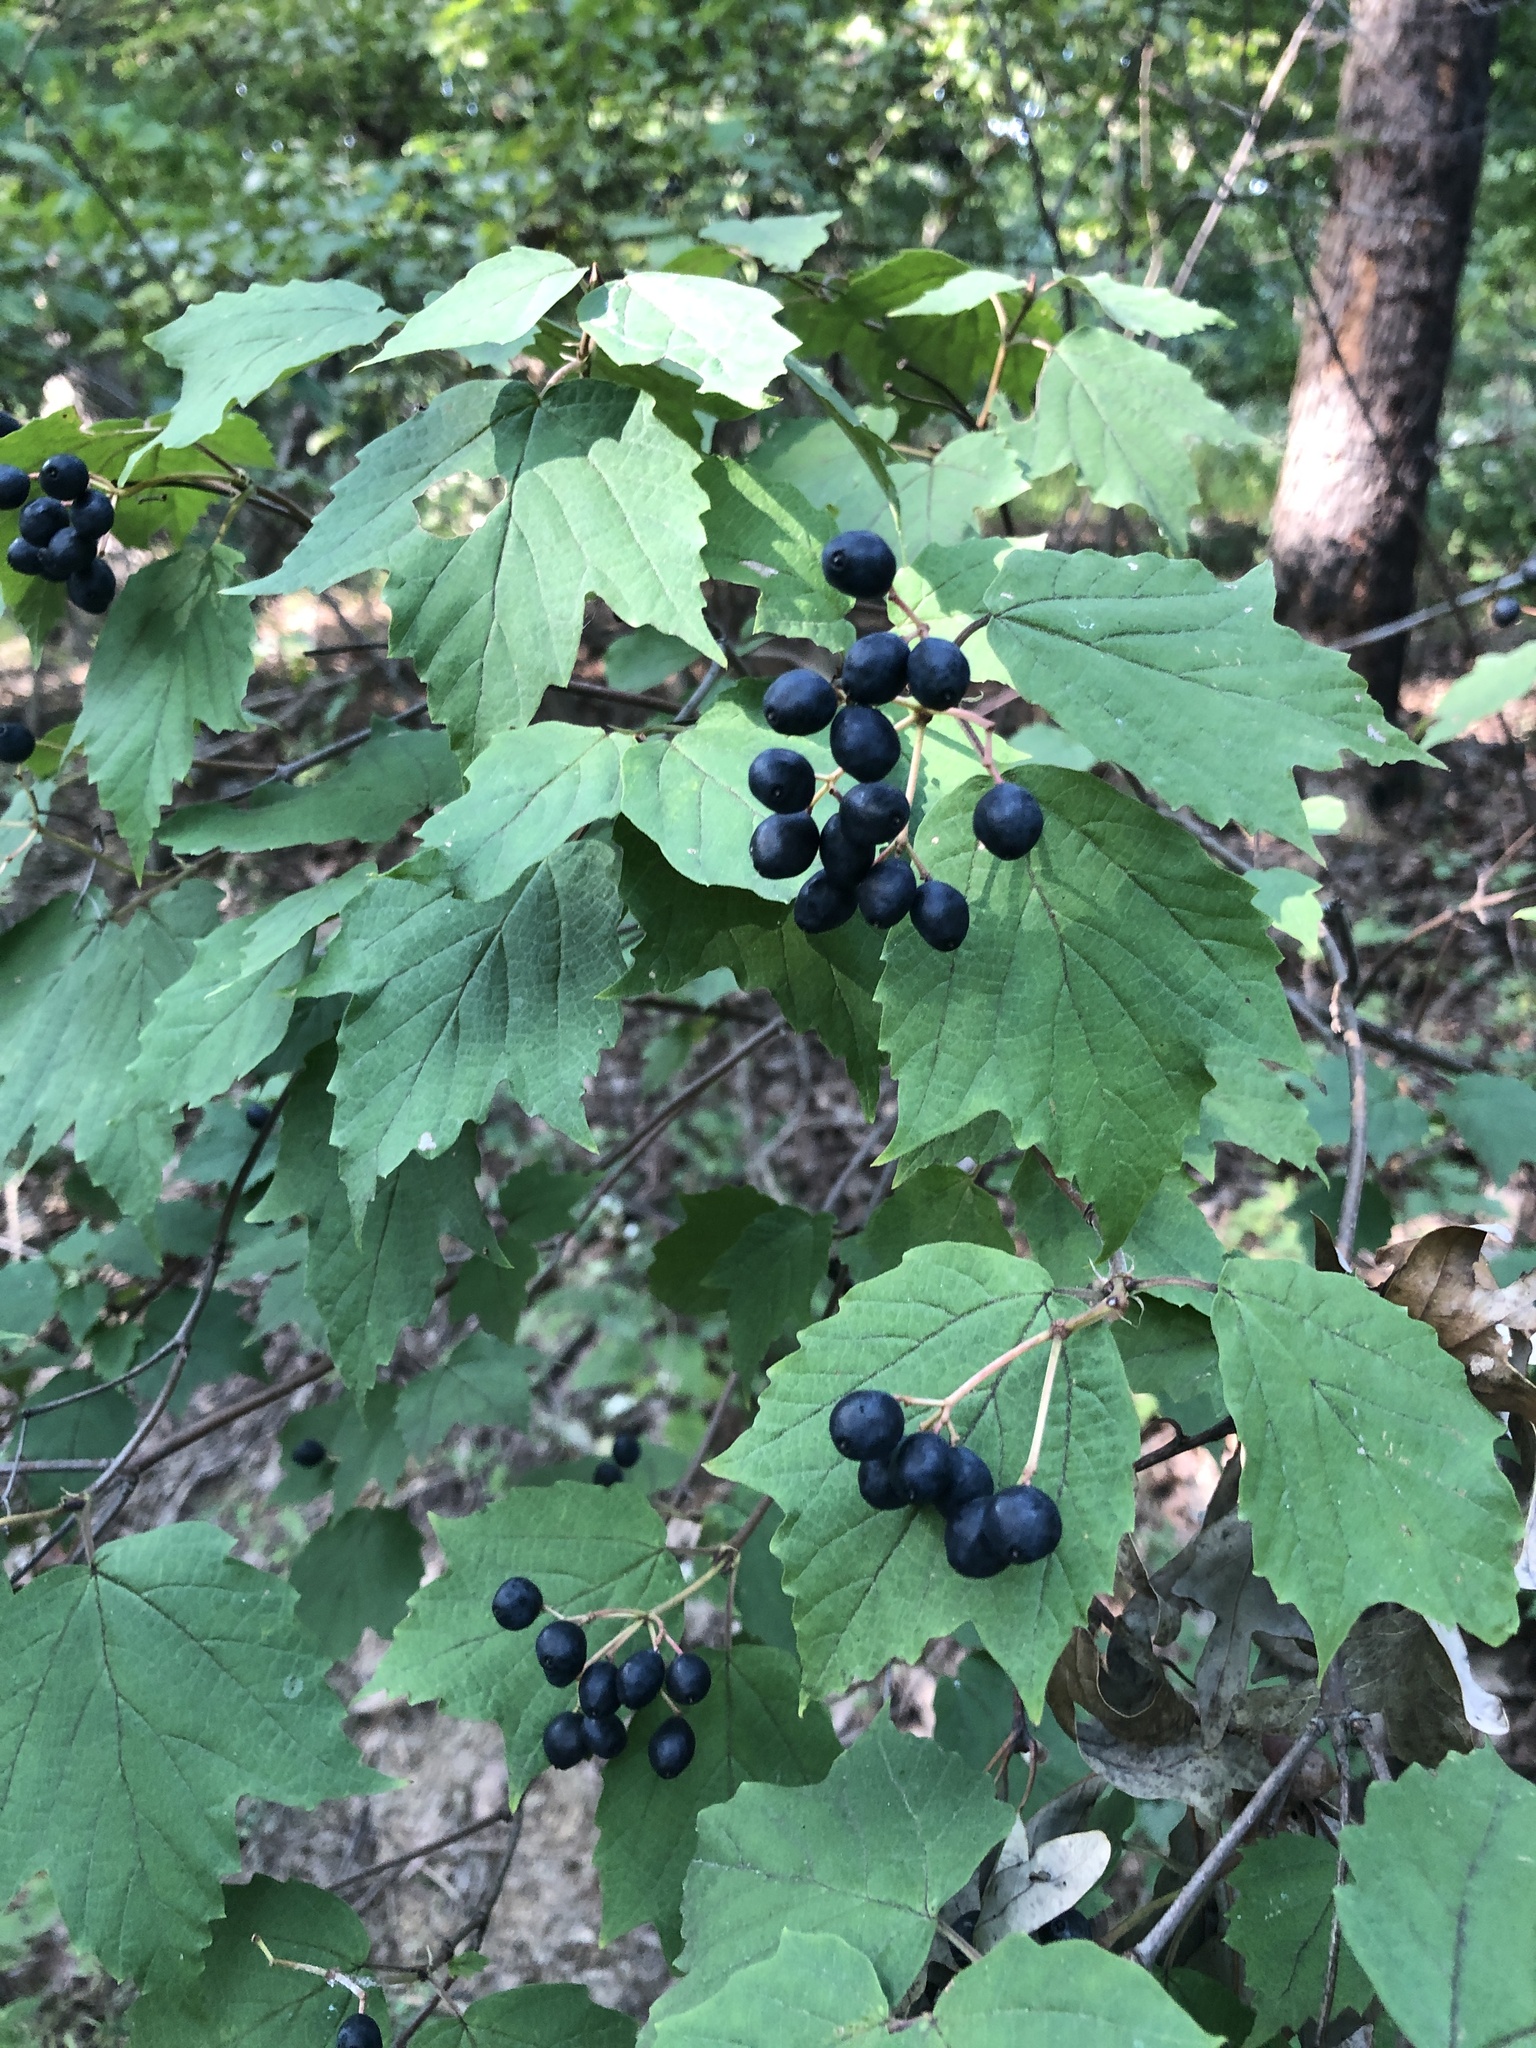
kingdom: Plantae
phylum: Tracheophyta
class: Magnoliopsida
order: Dipsacales
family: Viburnaceae
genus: Viburnum
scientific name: Viburnum acerifolium
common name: Dockmackie
